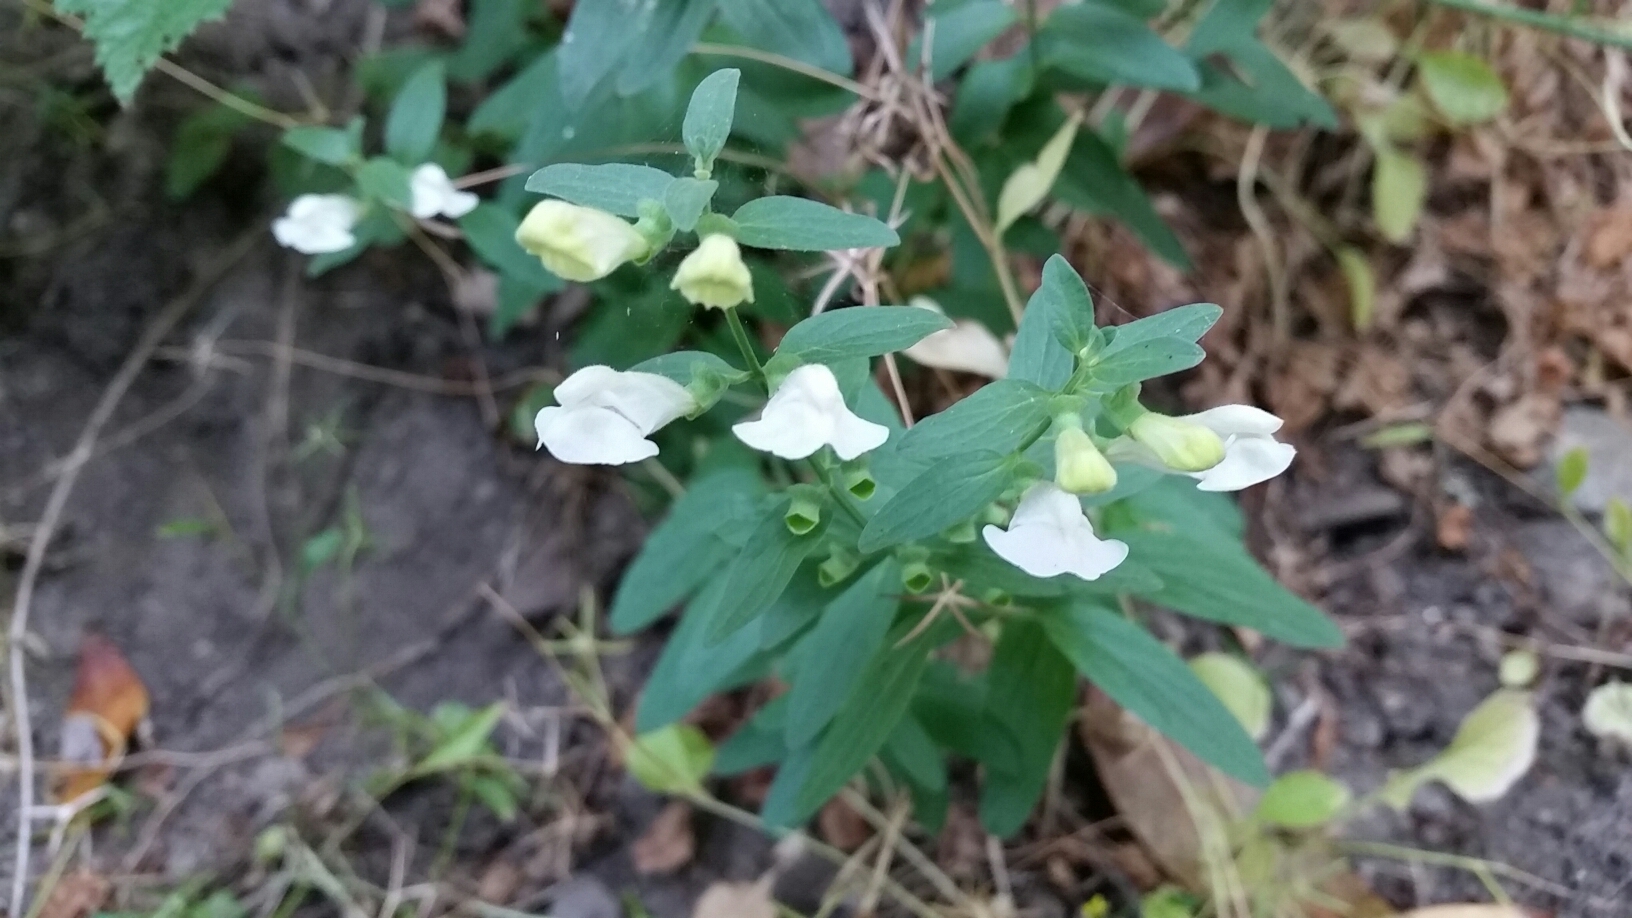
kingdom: Plantae
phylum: Tracheophyta
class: Magnoliopsida
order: Lamiales
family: Lamiaceae
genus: Scutellaria
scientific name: Scutellaria californica
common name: California scullcap
